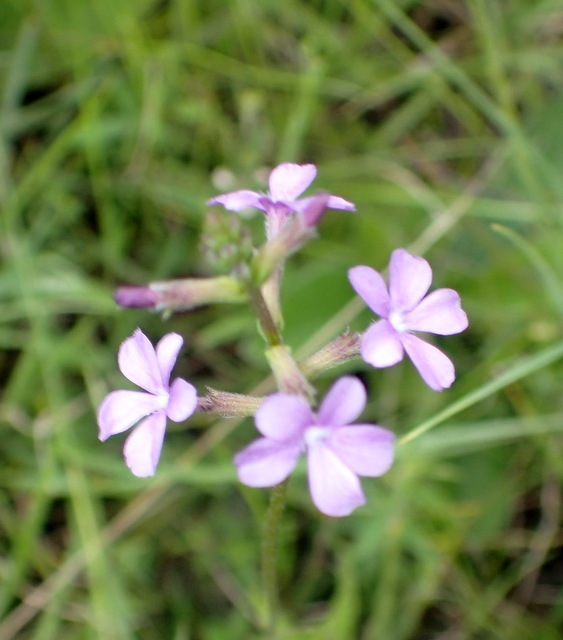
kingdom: Plantae
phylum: Tracheophyta
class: Magnoliopsida
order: Lamiales
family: Orobanchaceae
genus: Buchnera
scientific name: Buchnera floridana
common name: Florida bluehearts
